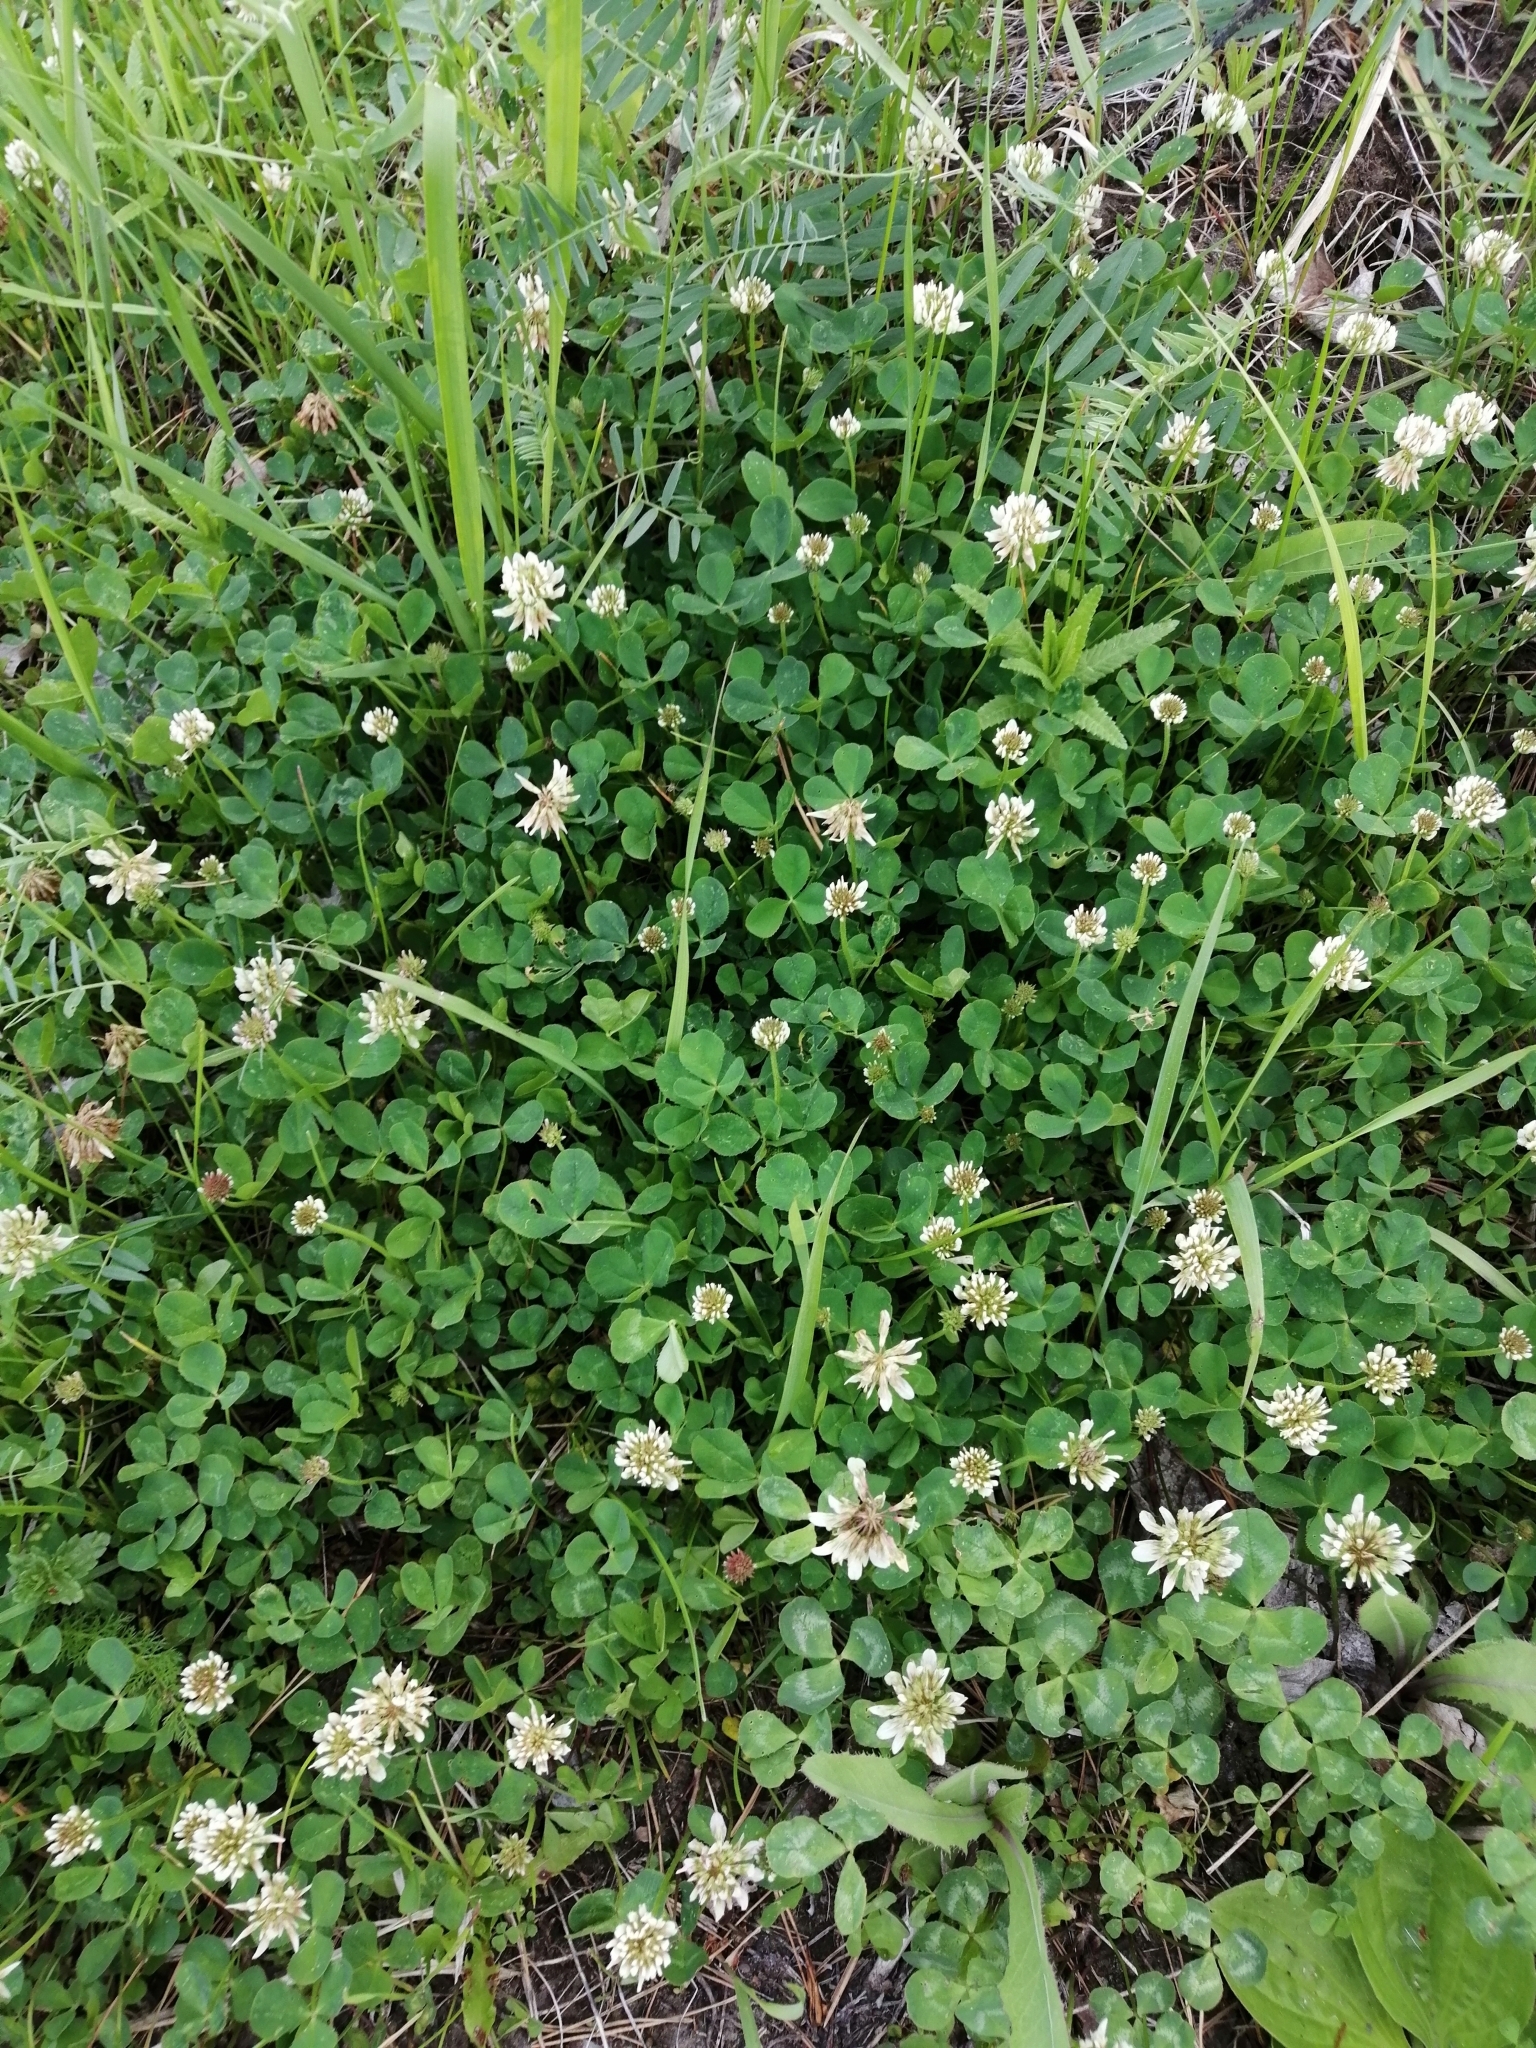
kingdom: Plantae
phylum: Tracheophyta
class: Magnoliopsida
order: Fabales
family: Fabaceae
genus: Trifolium
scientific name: Trifolium repens
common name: White clover
